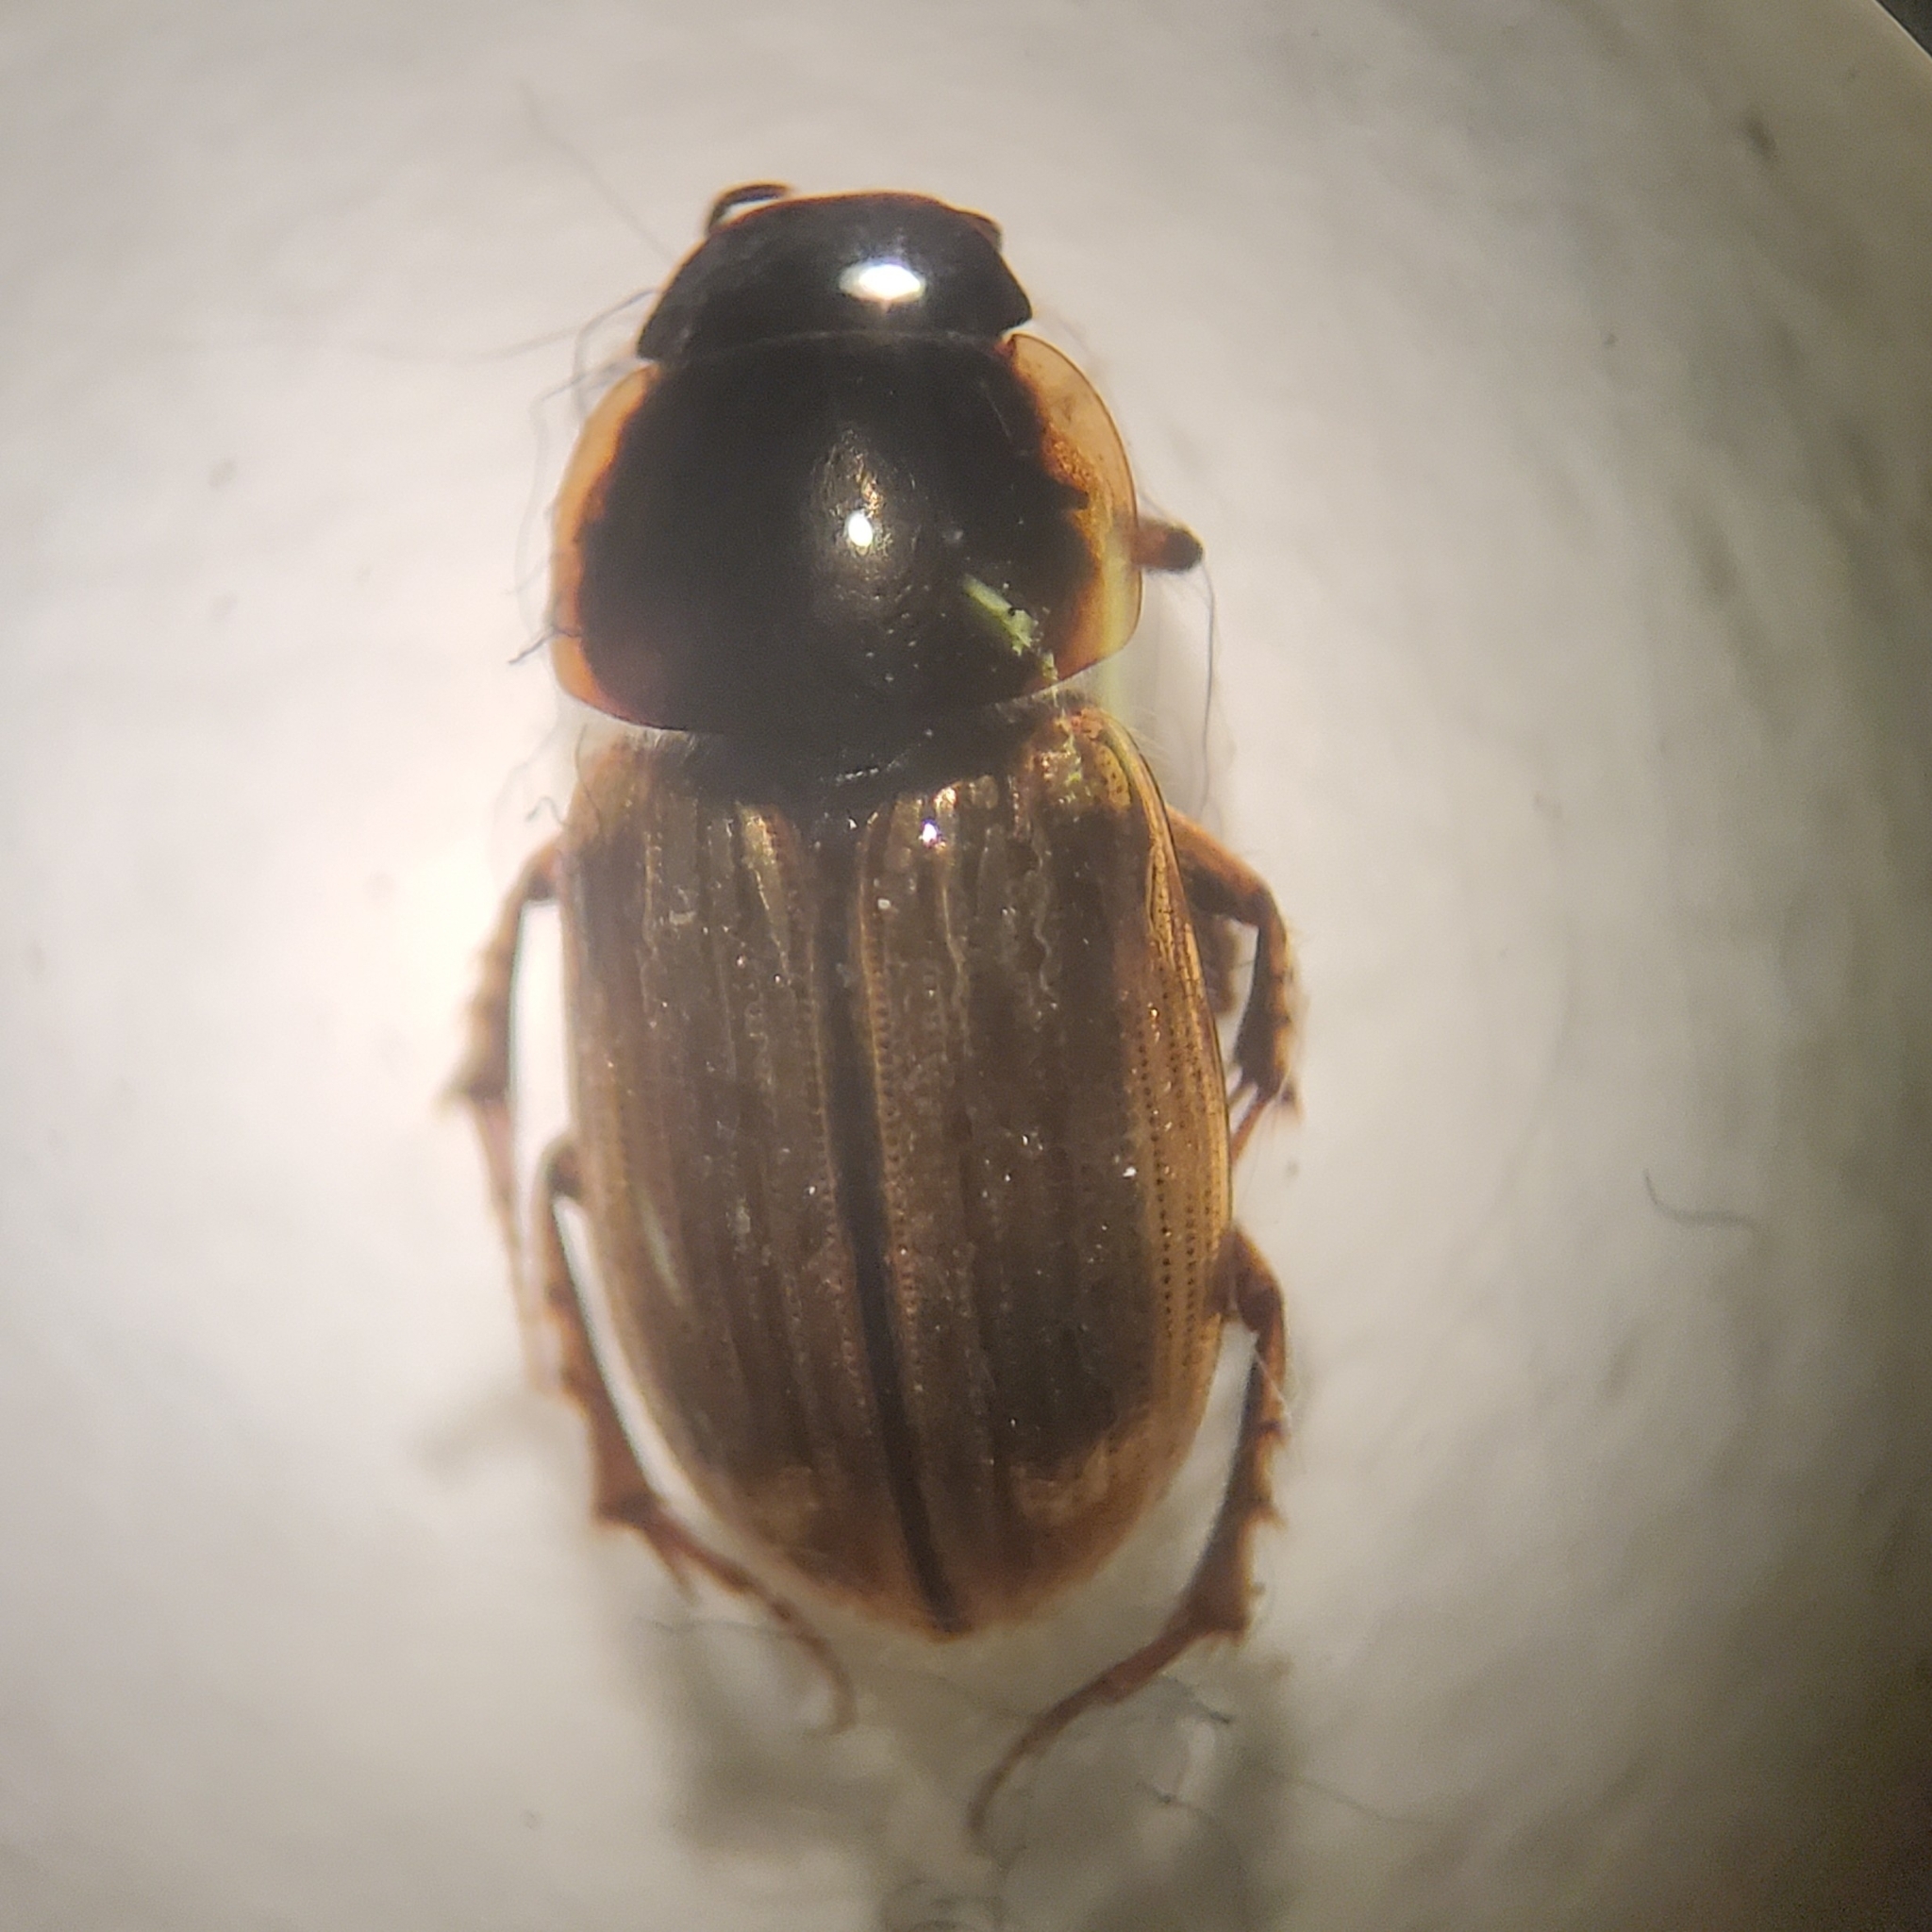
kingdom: Animalia
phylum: Arthropoda
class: Insecta
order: Coleoptera
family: Scarabaeidae
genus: Melinopterus
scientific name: Melinopterus prodromus
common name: Spring small dung beetle
